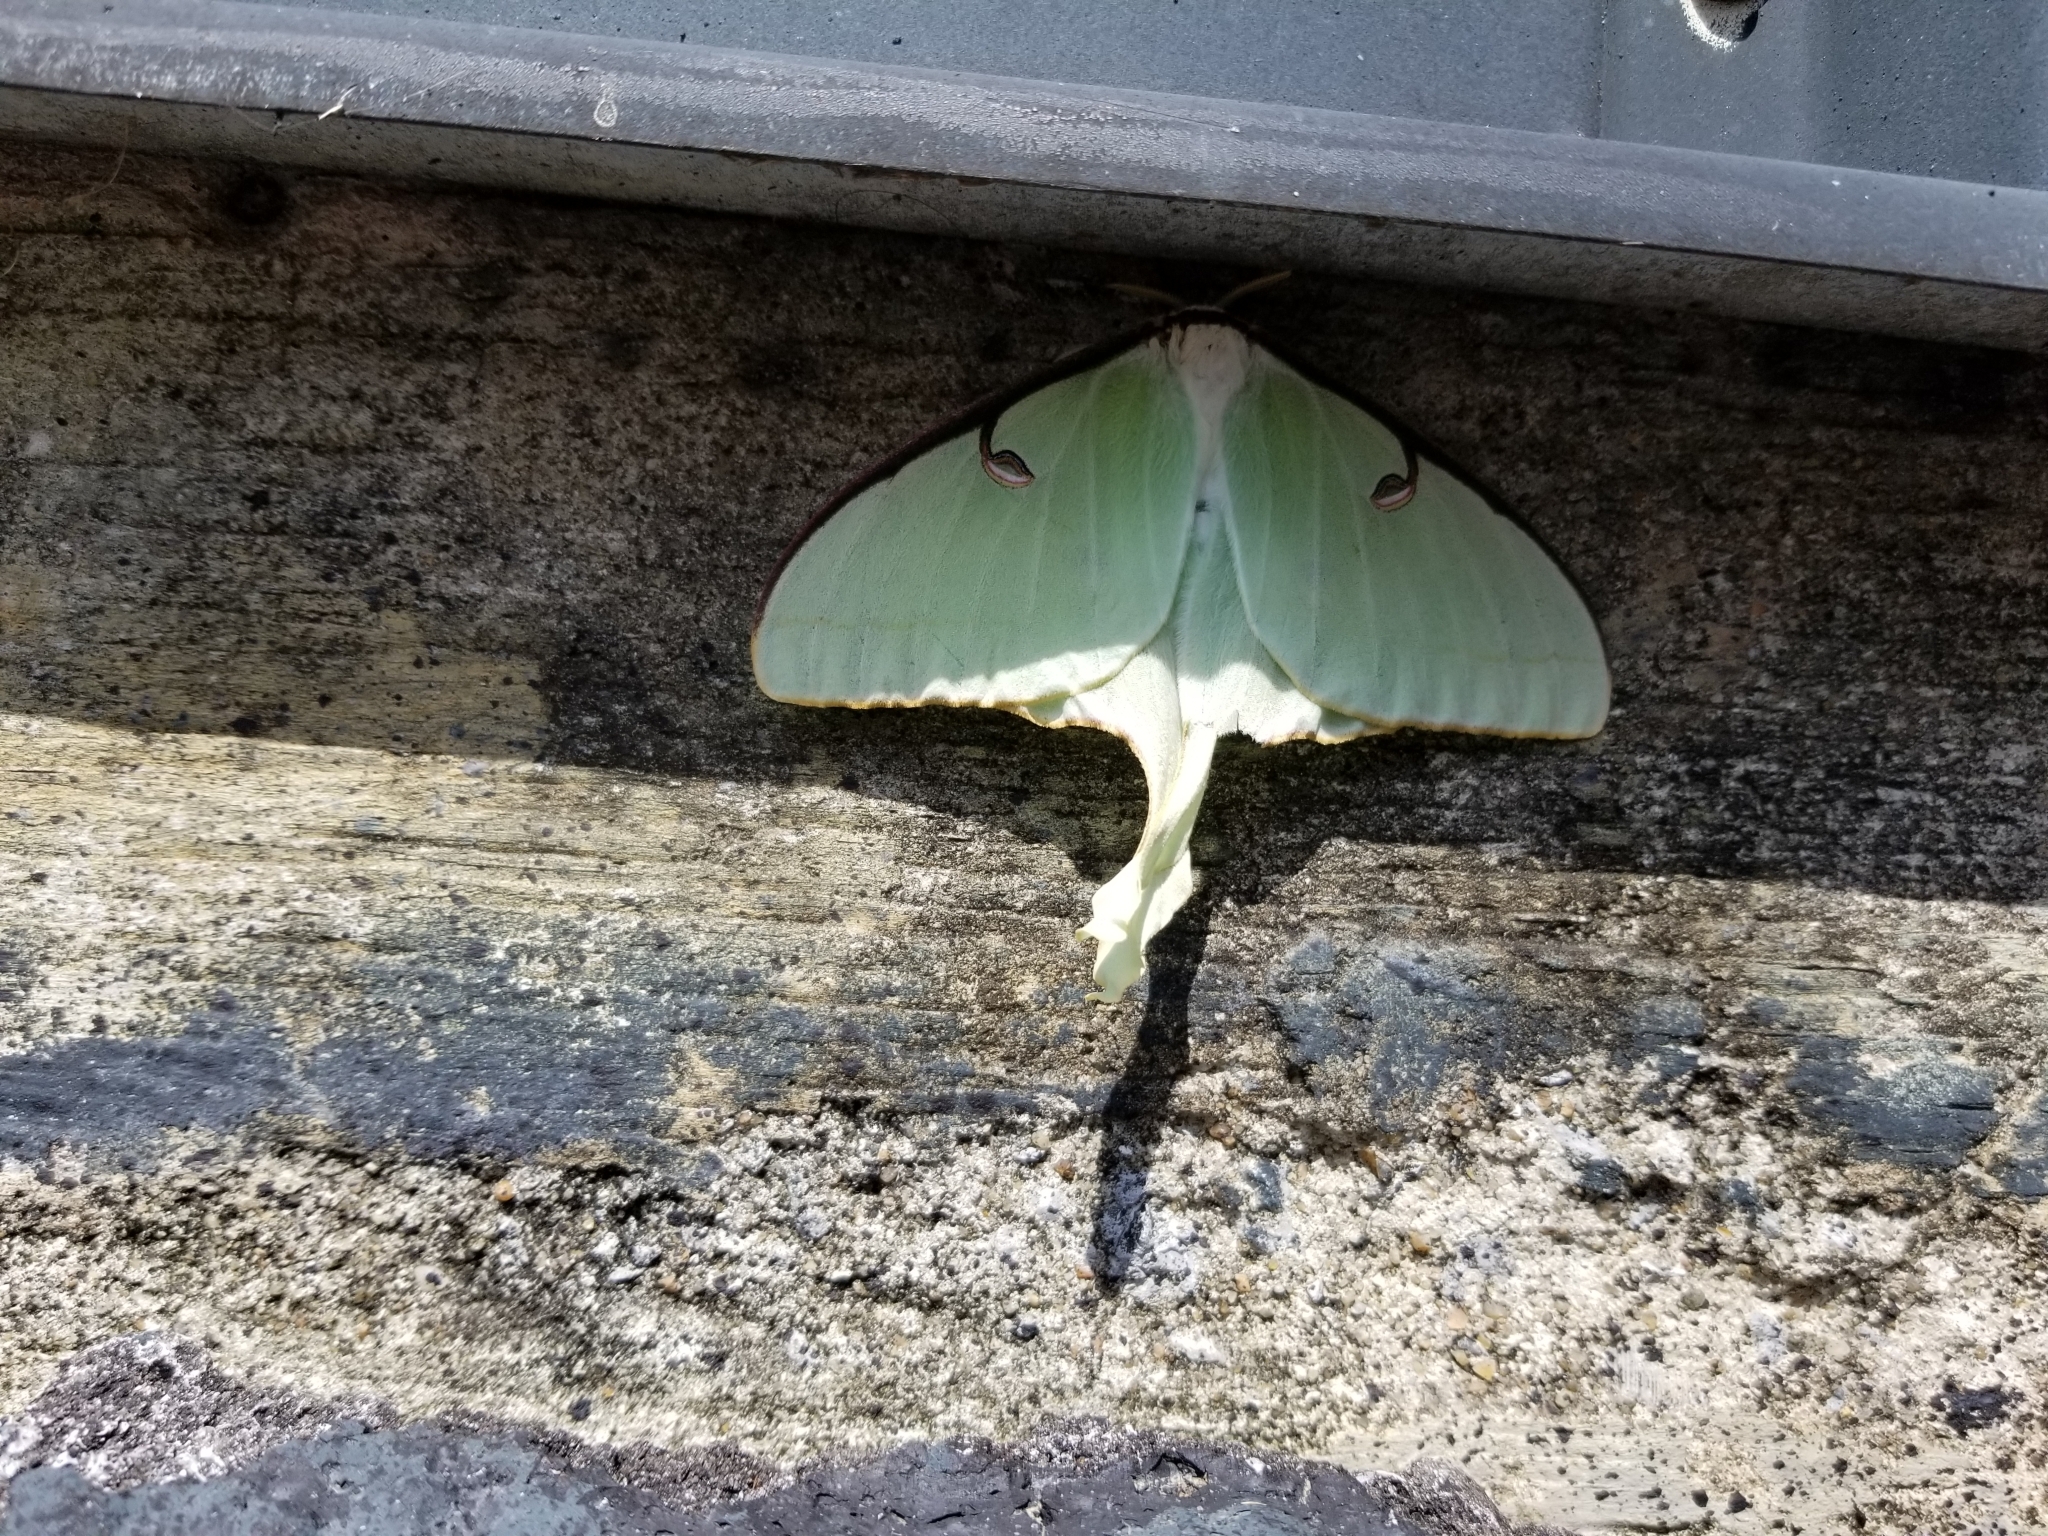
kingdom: Animalia
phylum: Arthropoda
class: Insecta
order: Lepidoptera
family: Saturniidae
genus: Actias
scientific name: Actias luna
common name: Luna moth
